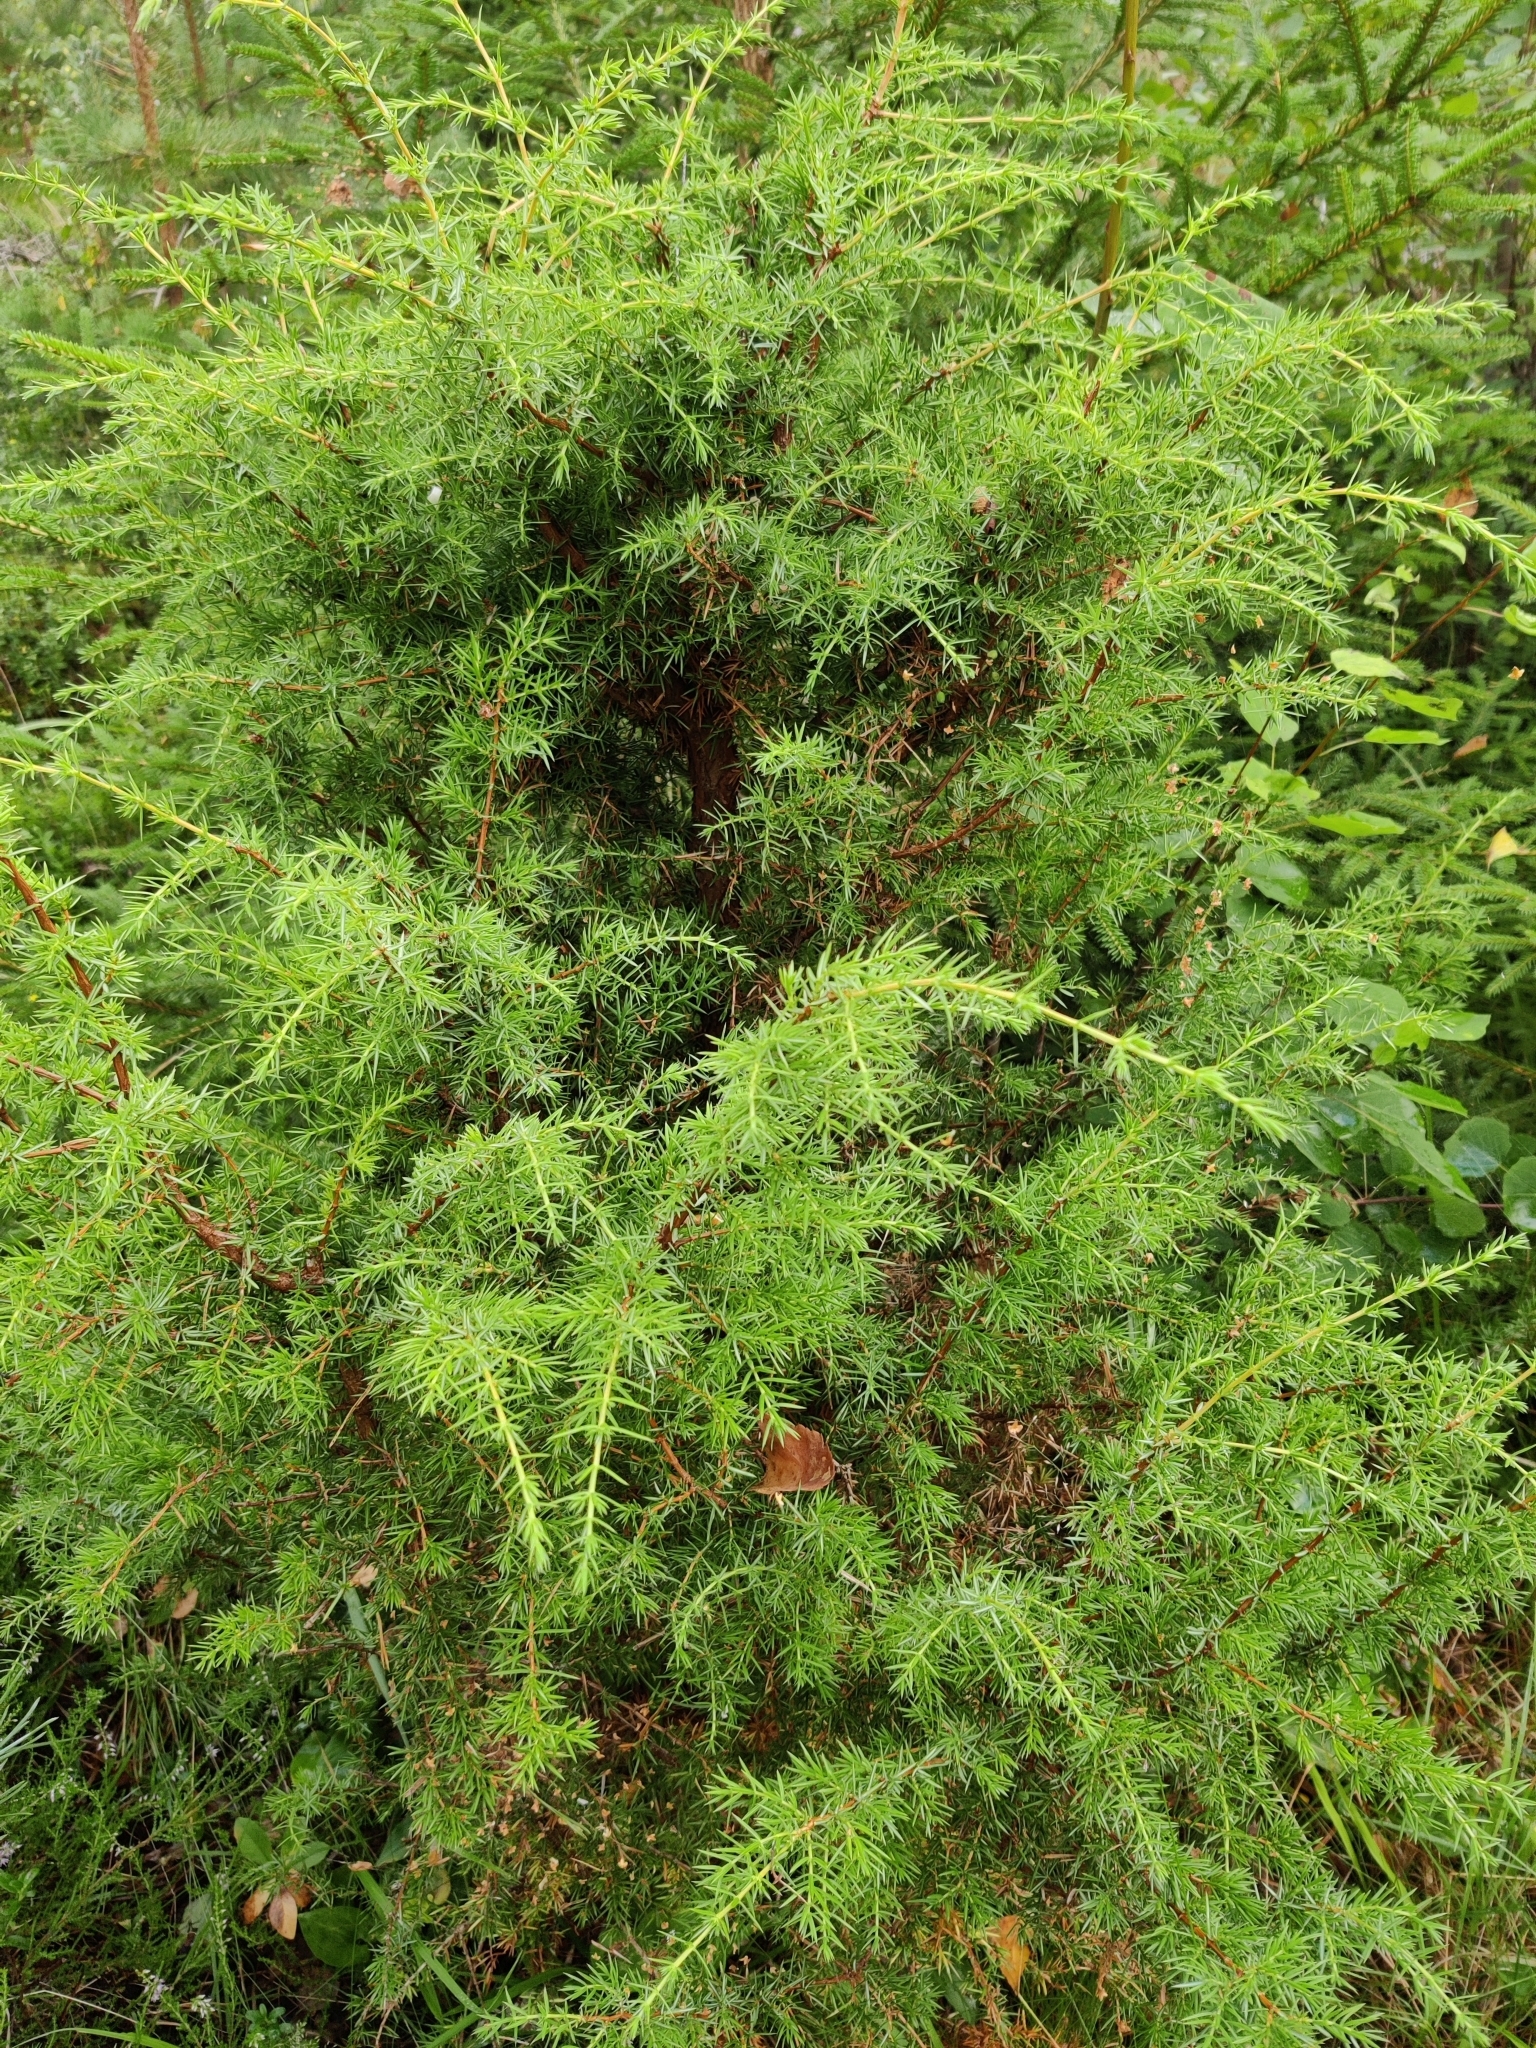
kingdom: Plantae
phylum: Tracheophyta
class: Pinopsida
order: Pinales
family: Cupressaceae
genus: Juniperus
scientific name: Juniperus communis
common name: Common juniper
